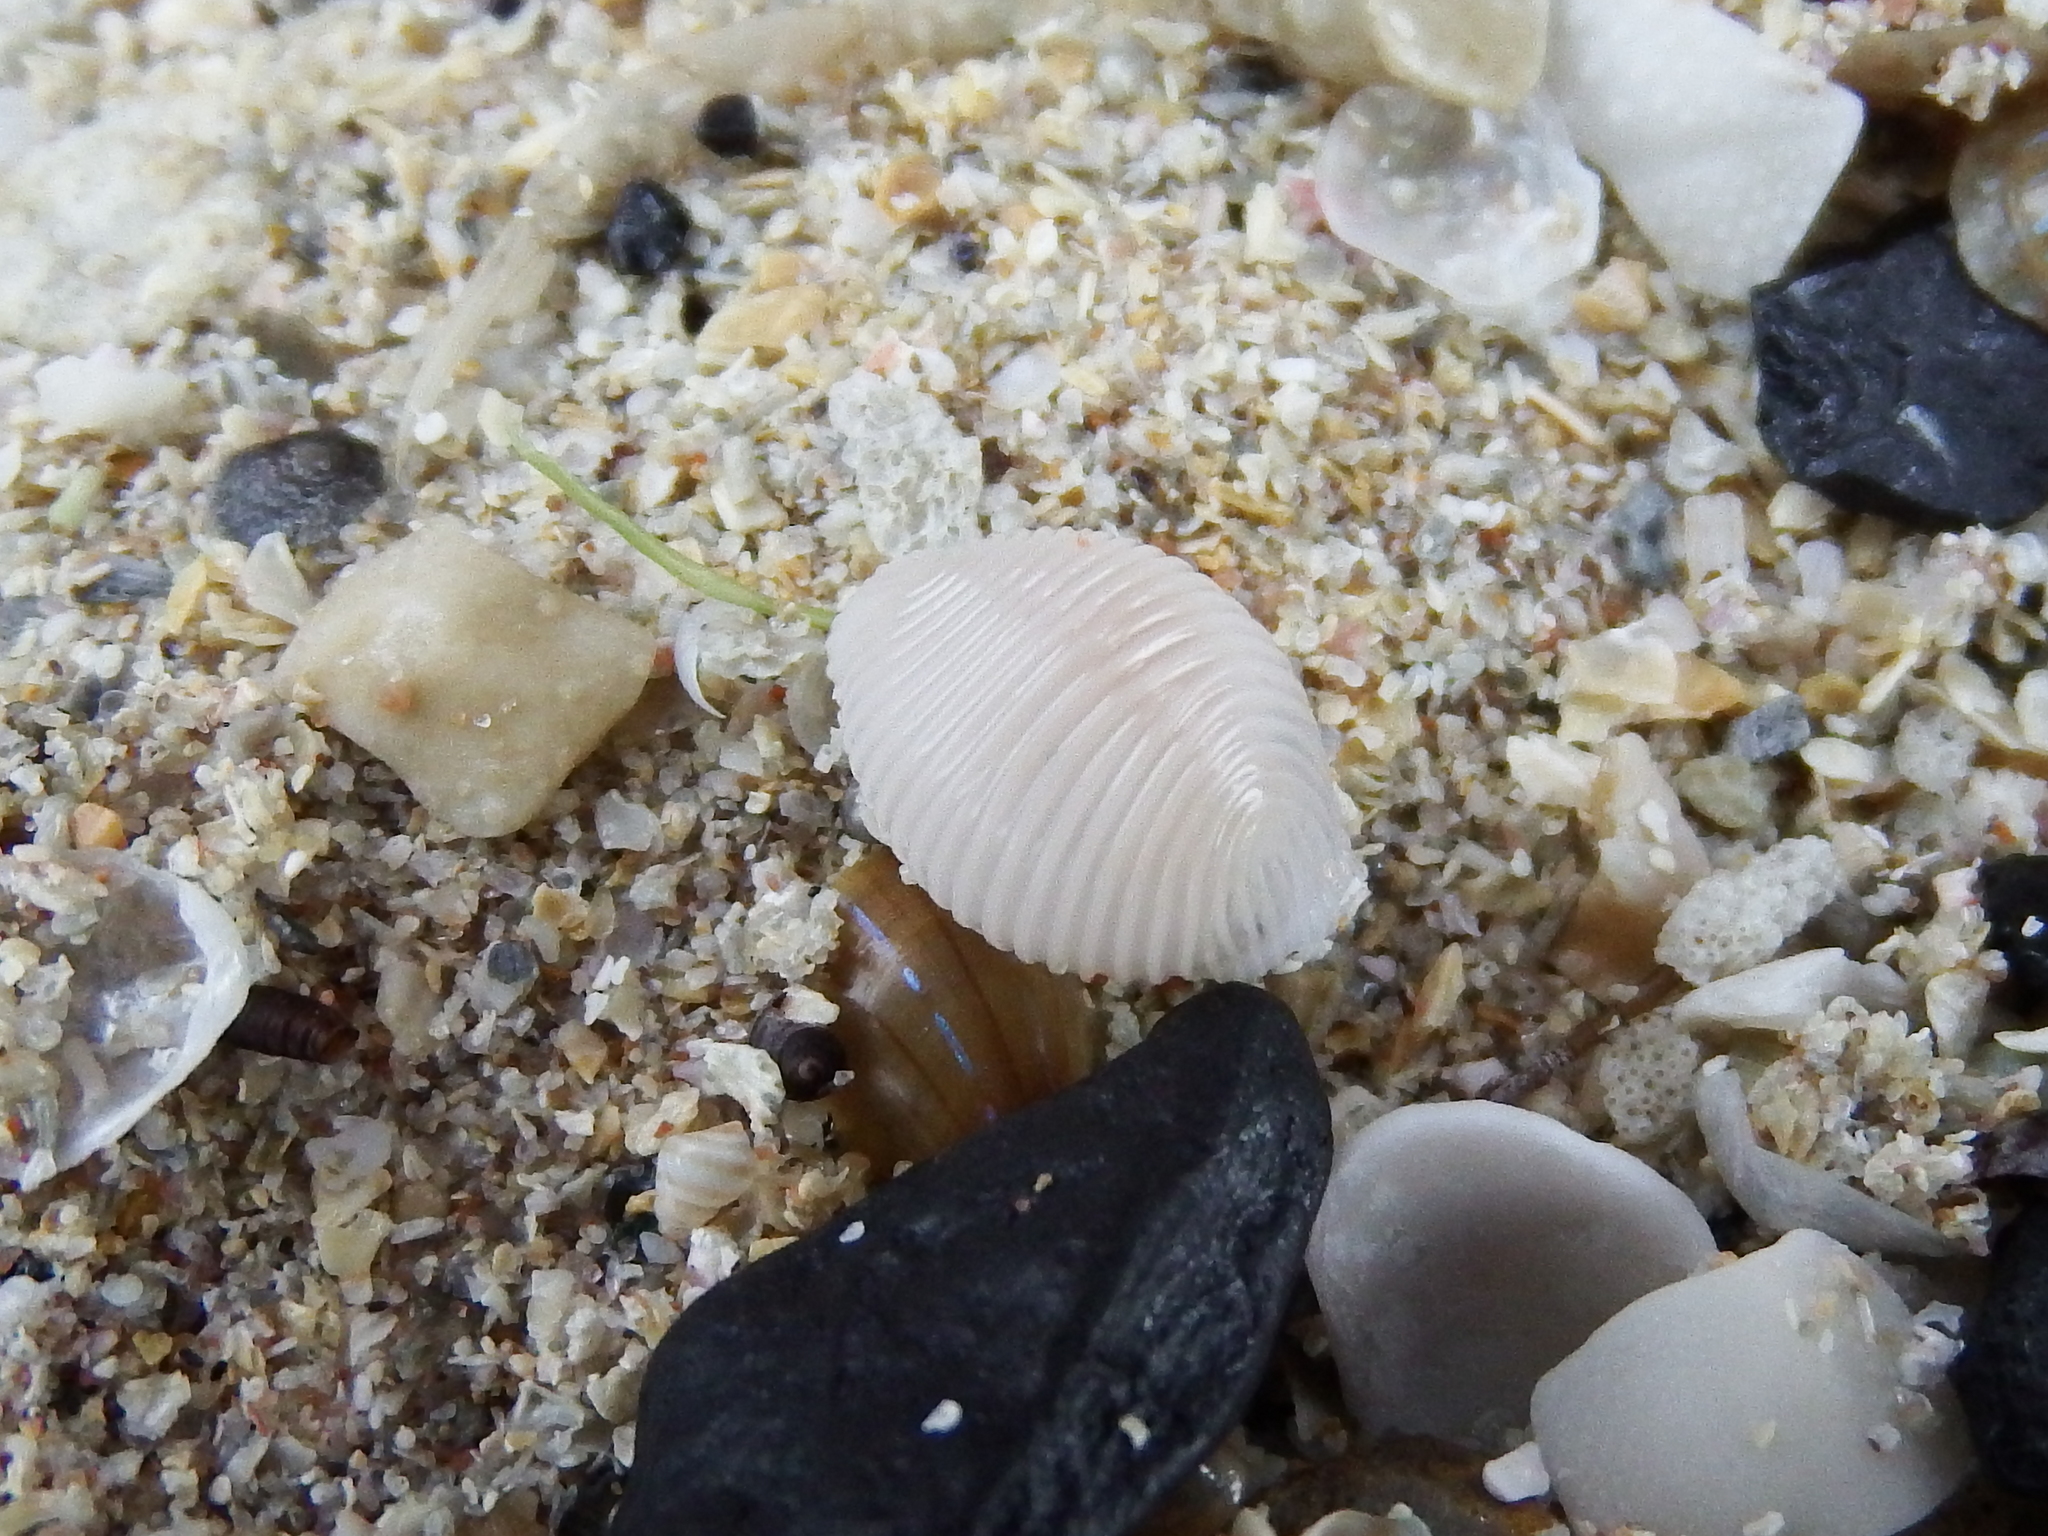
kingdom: Animalia
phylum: Mollusca
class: Gastropoda
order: Littorinimorpha
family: Triviidae
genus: Trivia
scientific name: Trivia
